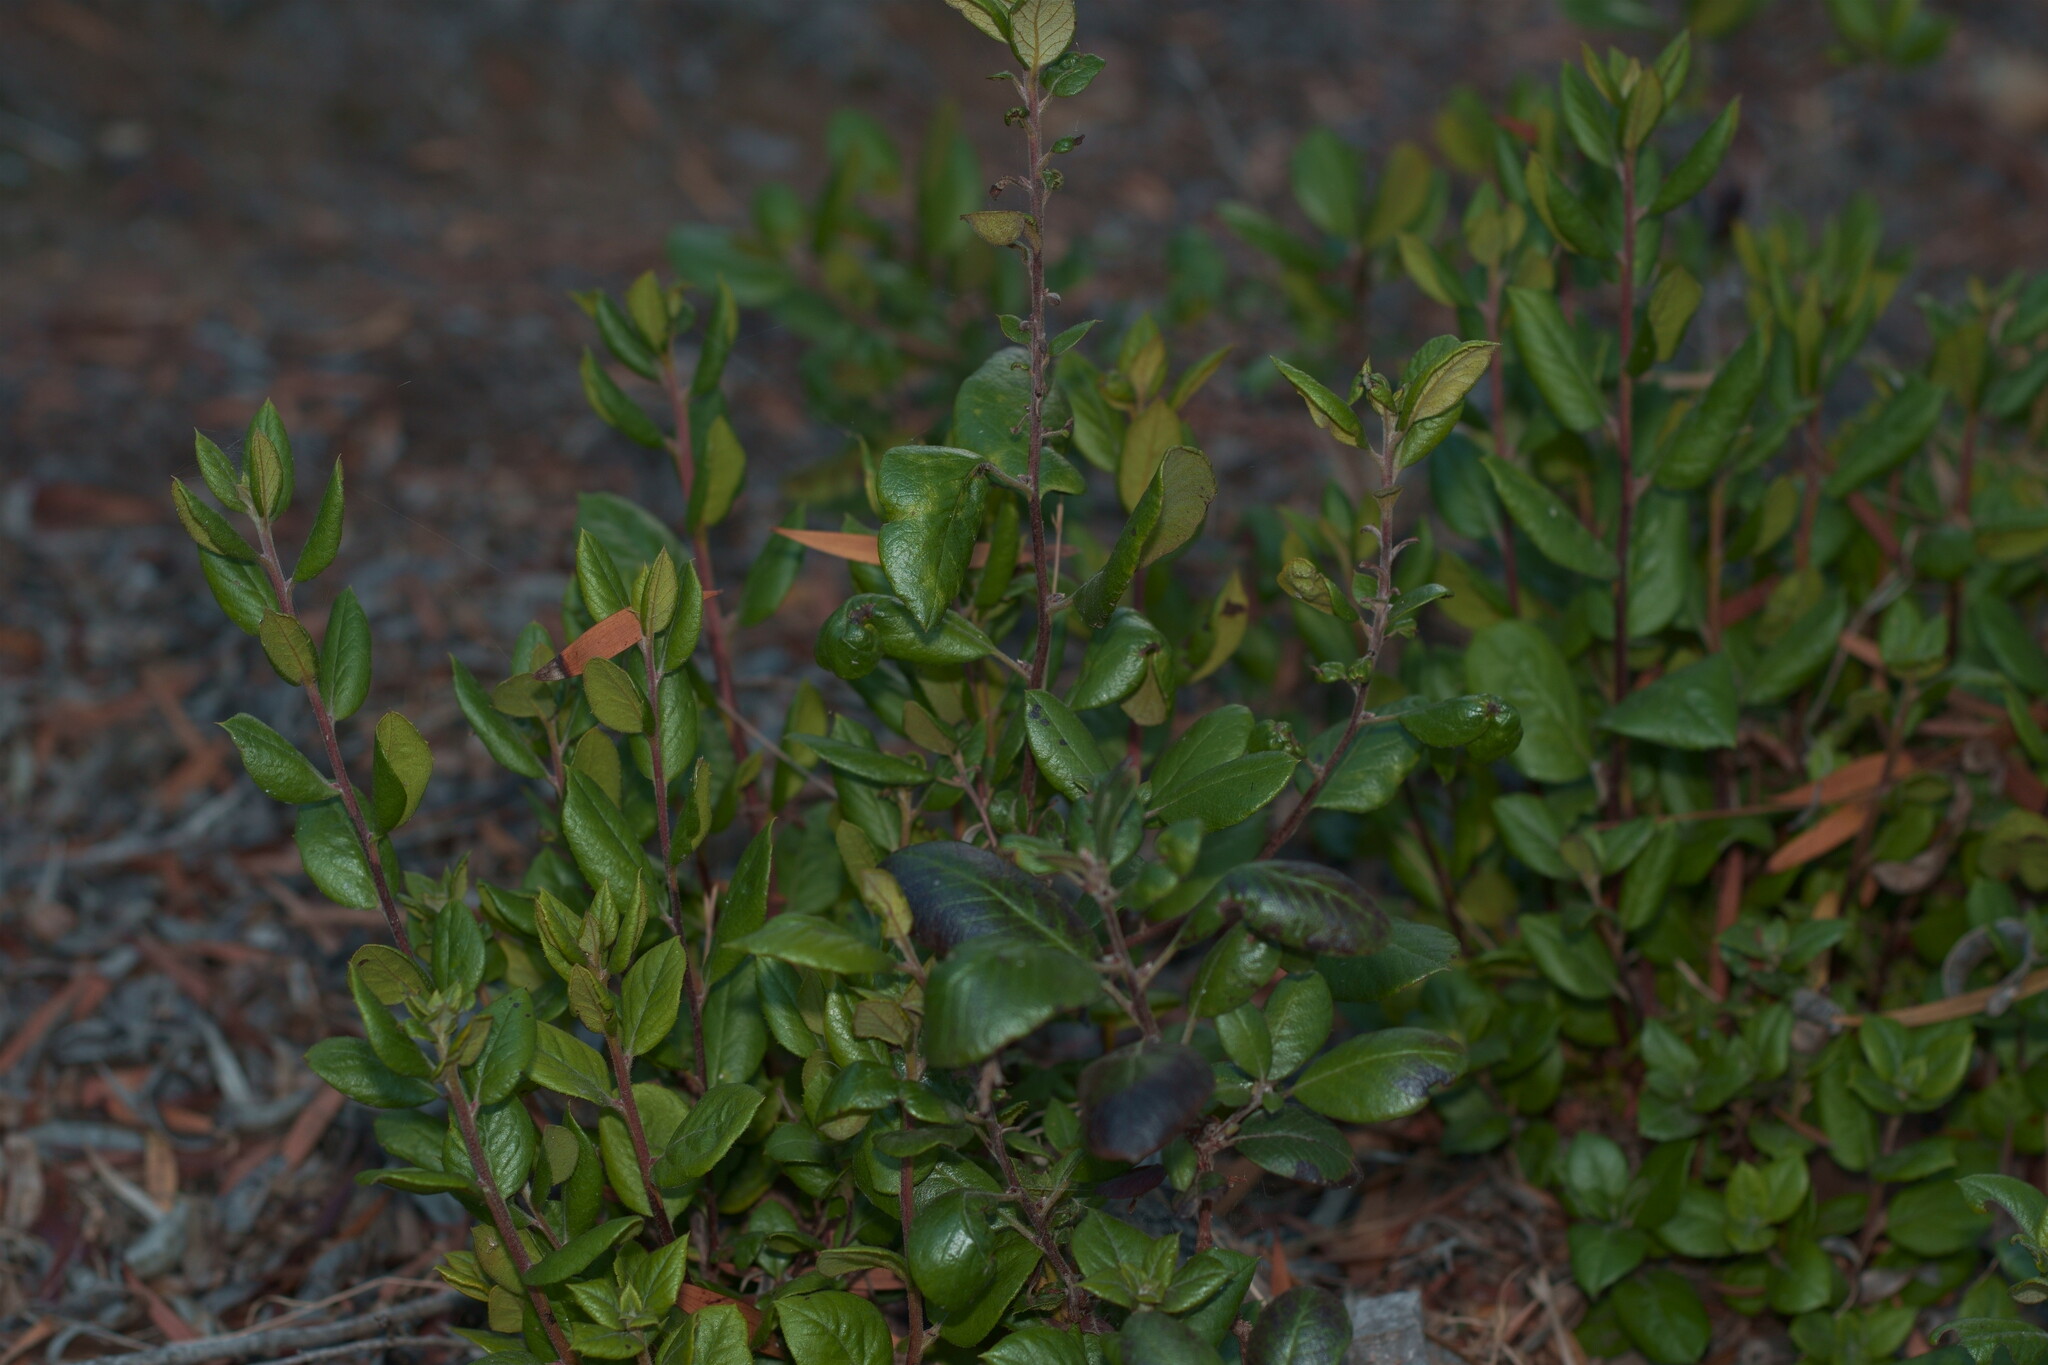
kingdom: Plantae
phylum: Tracheophyta
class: Magnoliopsida
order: Ericales
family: Ericaceae
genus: Arctostaphylos
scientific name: Arctostaphylos bicolor
